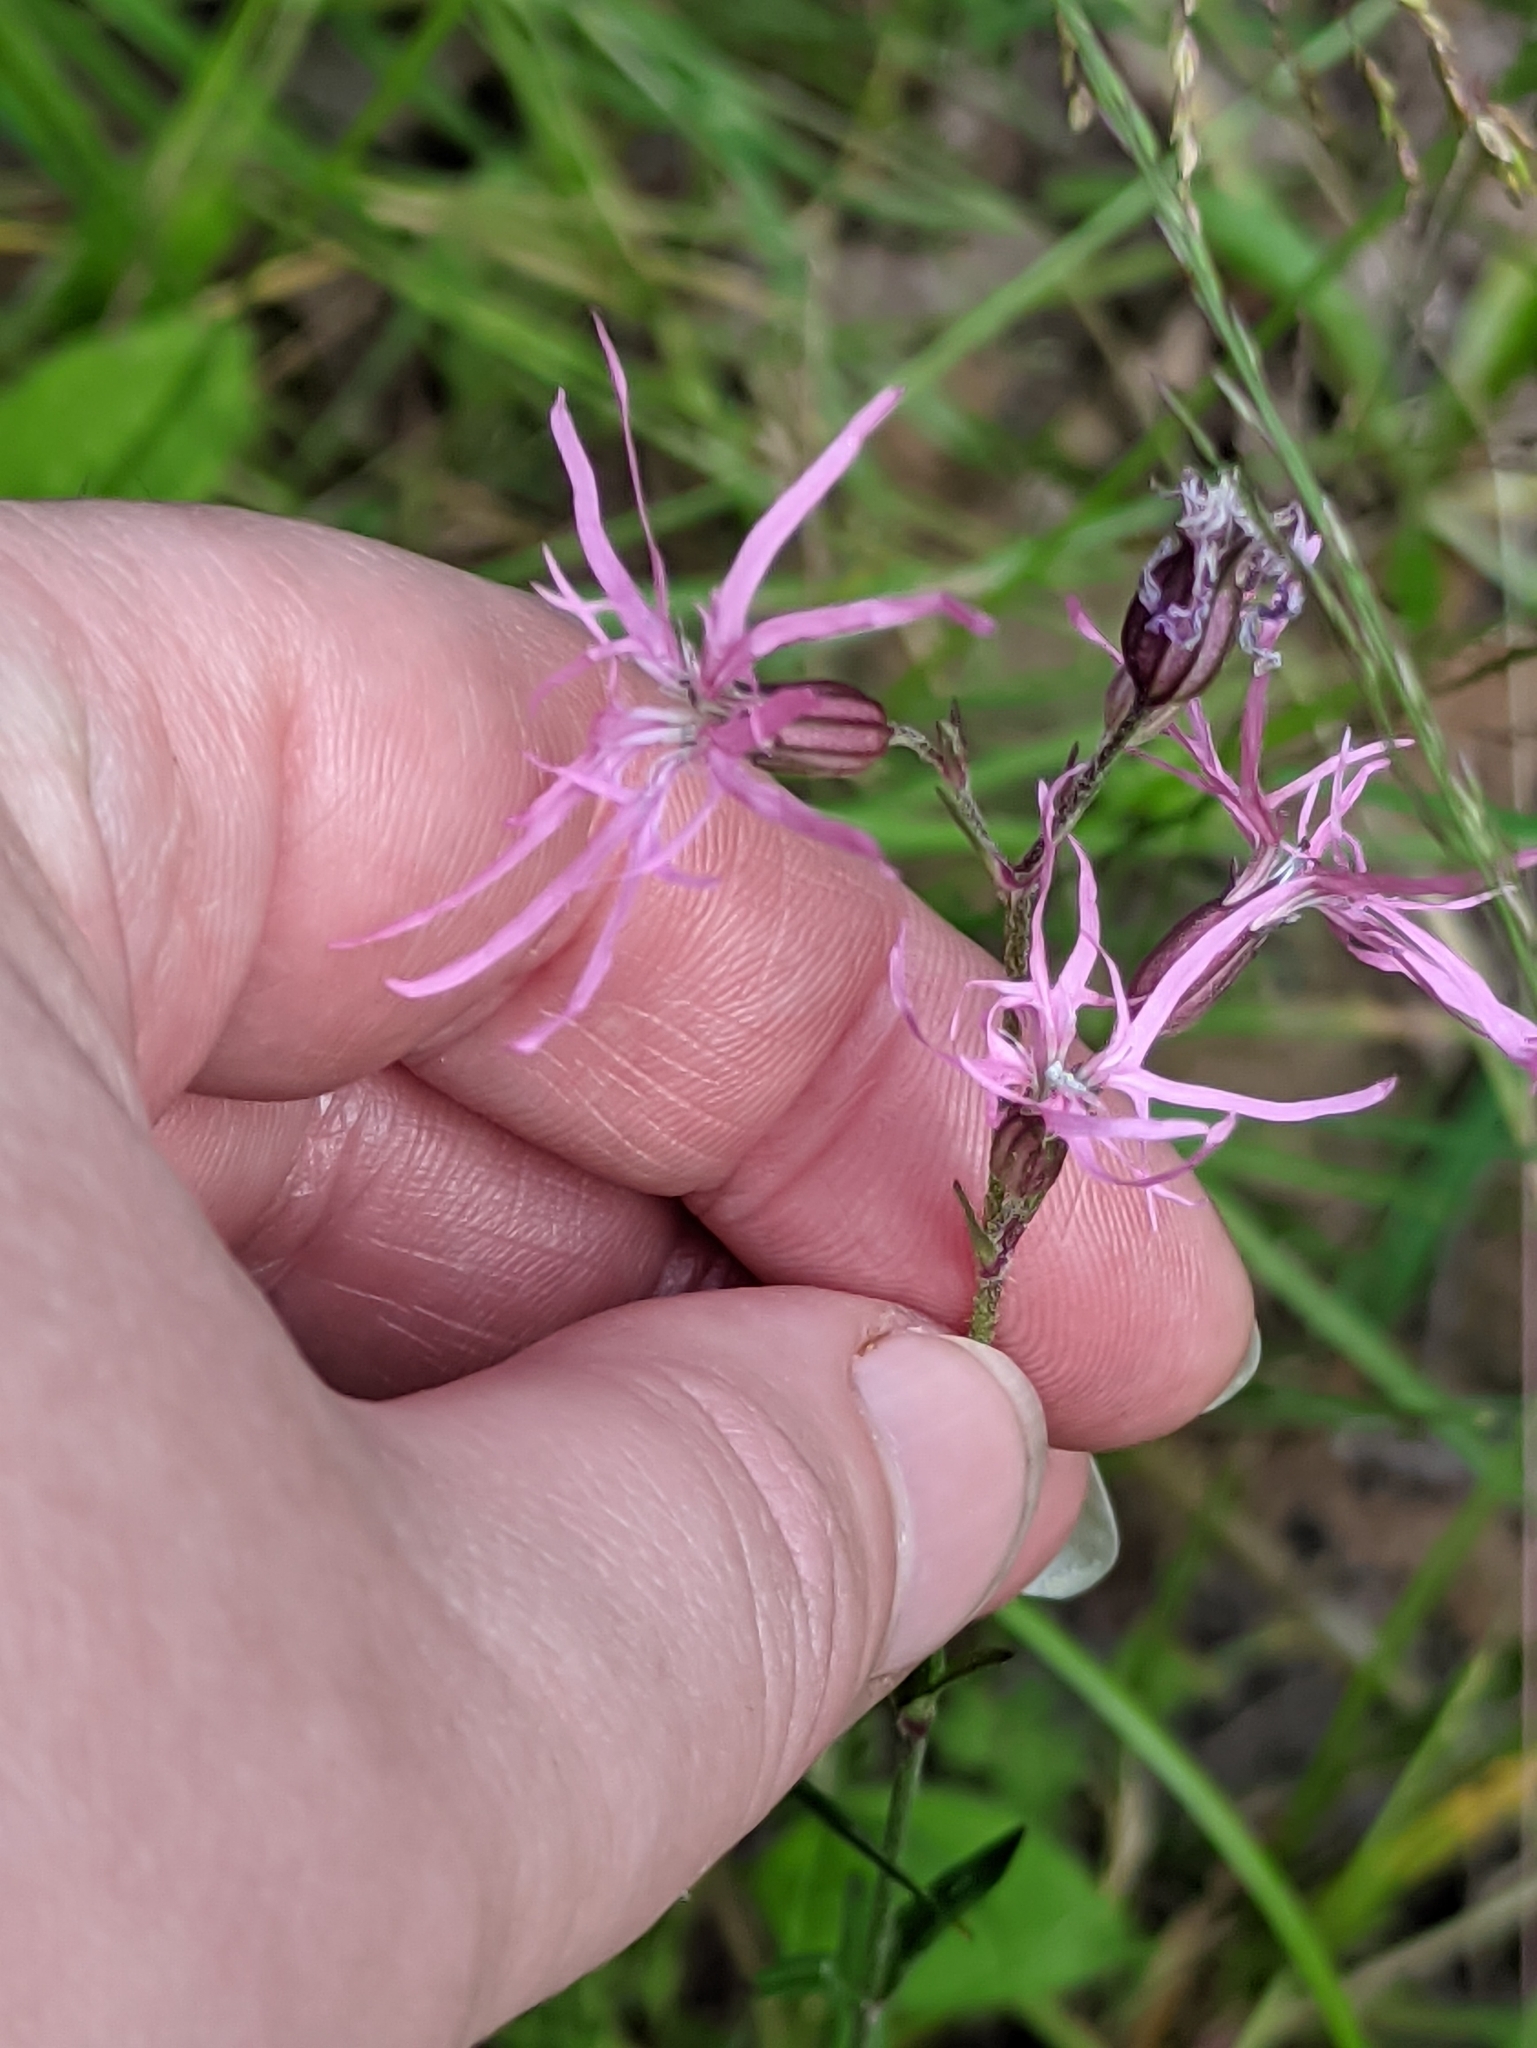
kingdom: Plantae
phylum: Tracheophyta
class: Magnoliopsida
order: Caryophyllales
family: Caryophyllaceae
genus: Silene
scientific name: Silene flos-cuculi
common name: Ragged-robin
